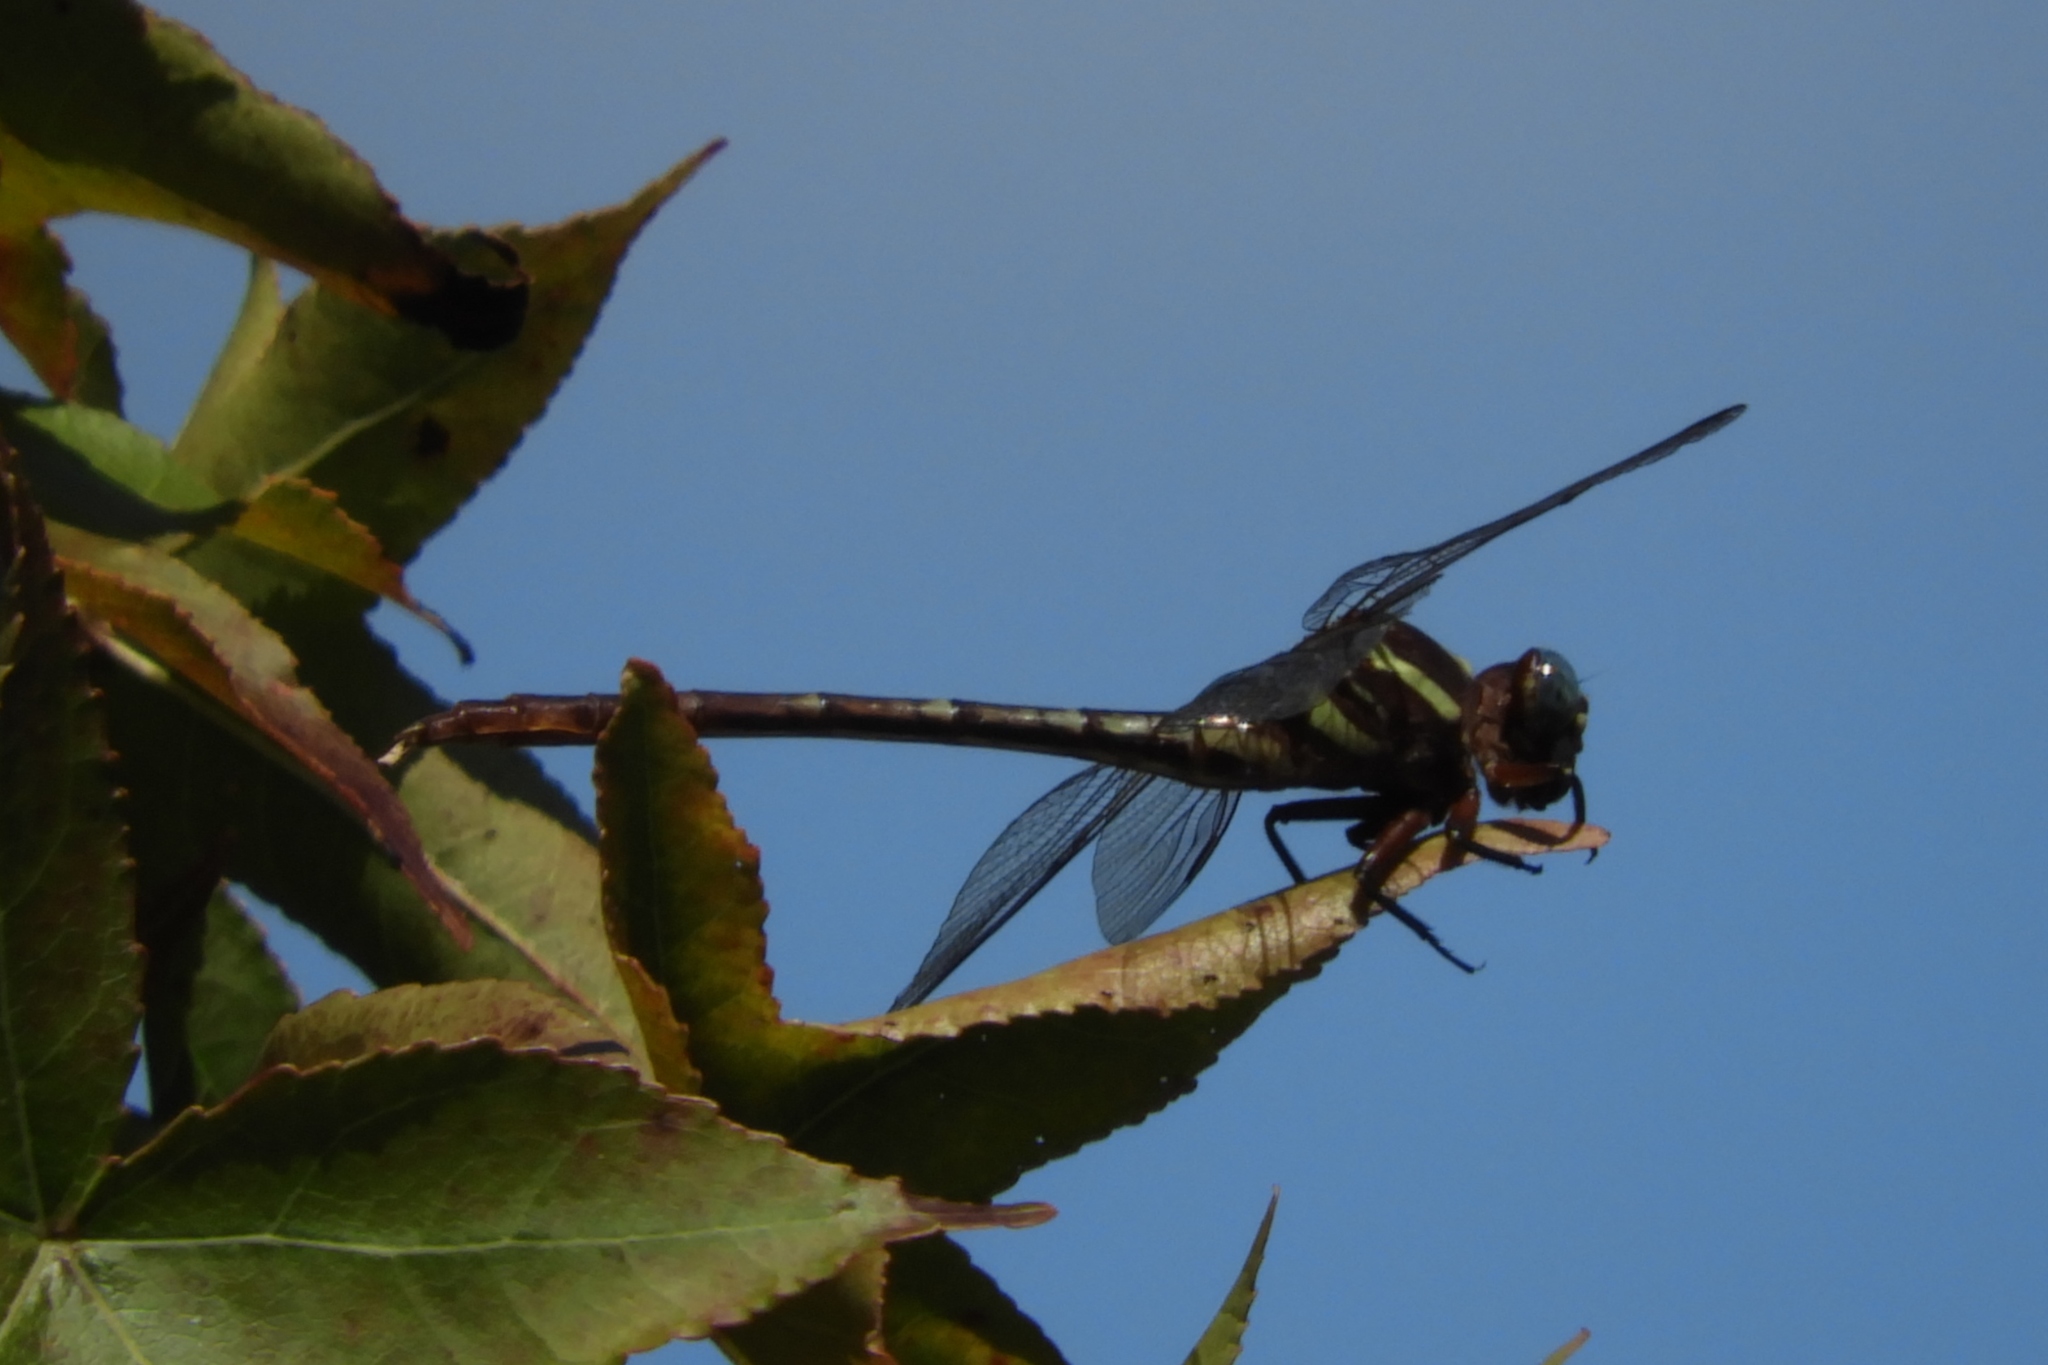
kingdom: Animalia
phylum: Arthropoda
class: Insecta
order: Odonata
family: Gomphidae
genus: Stylurus
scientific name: Stylurus plagiatus
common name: Russet-tipped clubtail
